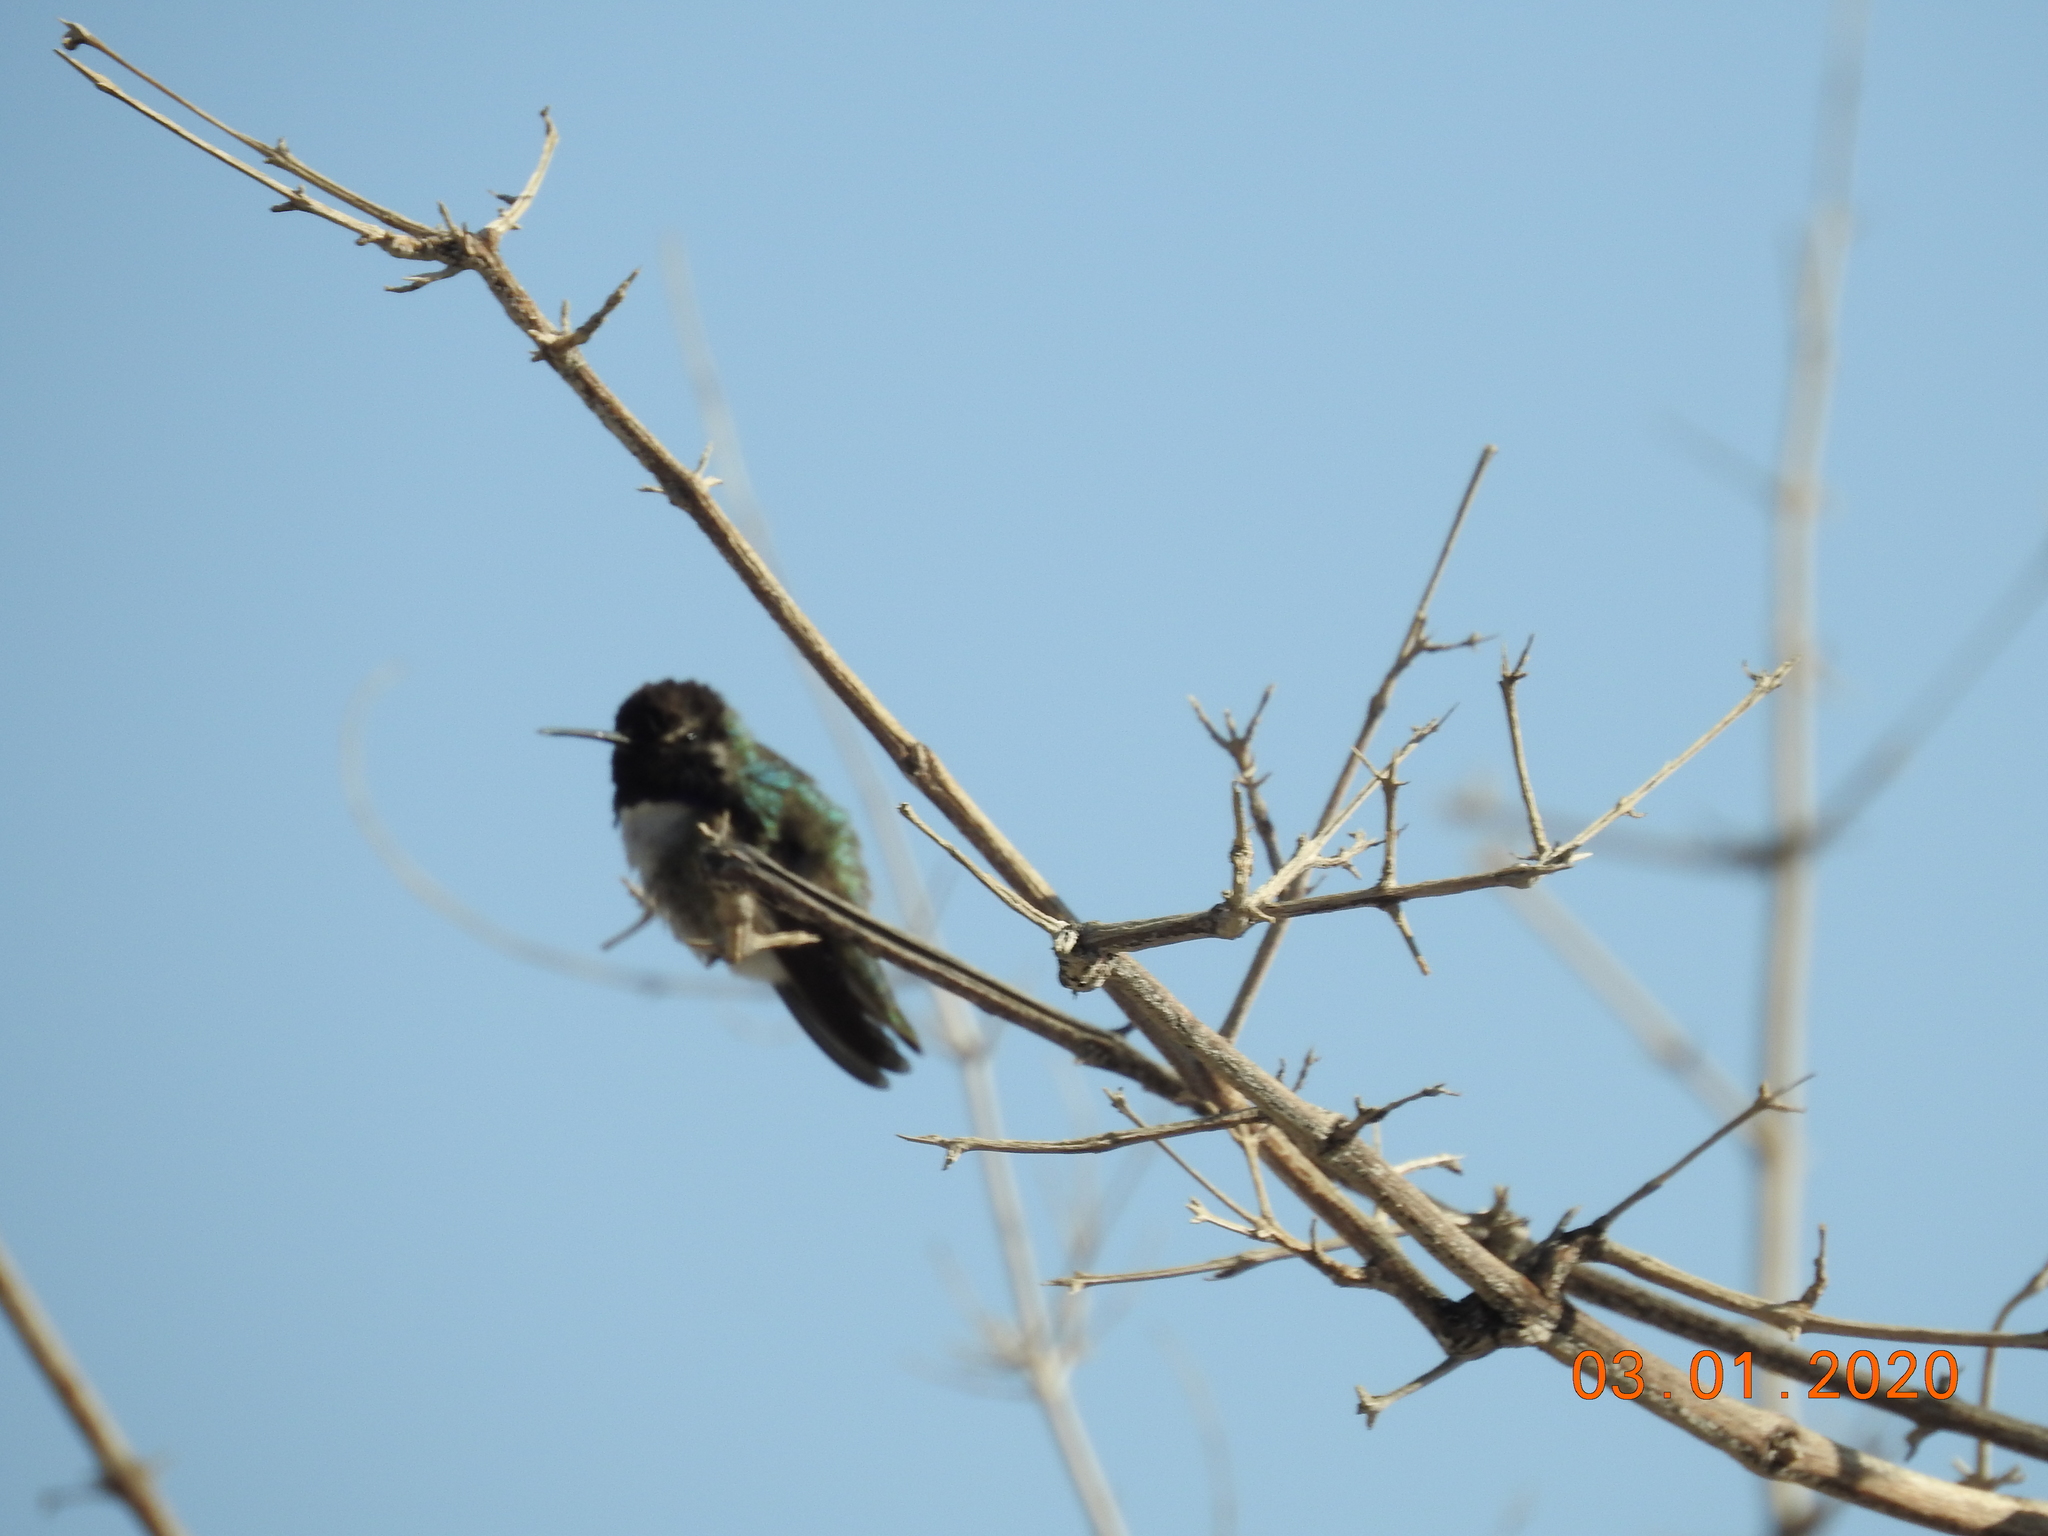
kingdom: Animalia
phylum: Chordata
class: Aves
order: Apodiformes
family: Trochilidae
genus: Calypte
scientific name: Calypte costae
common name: Costa's hummingbird
